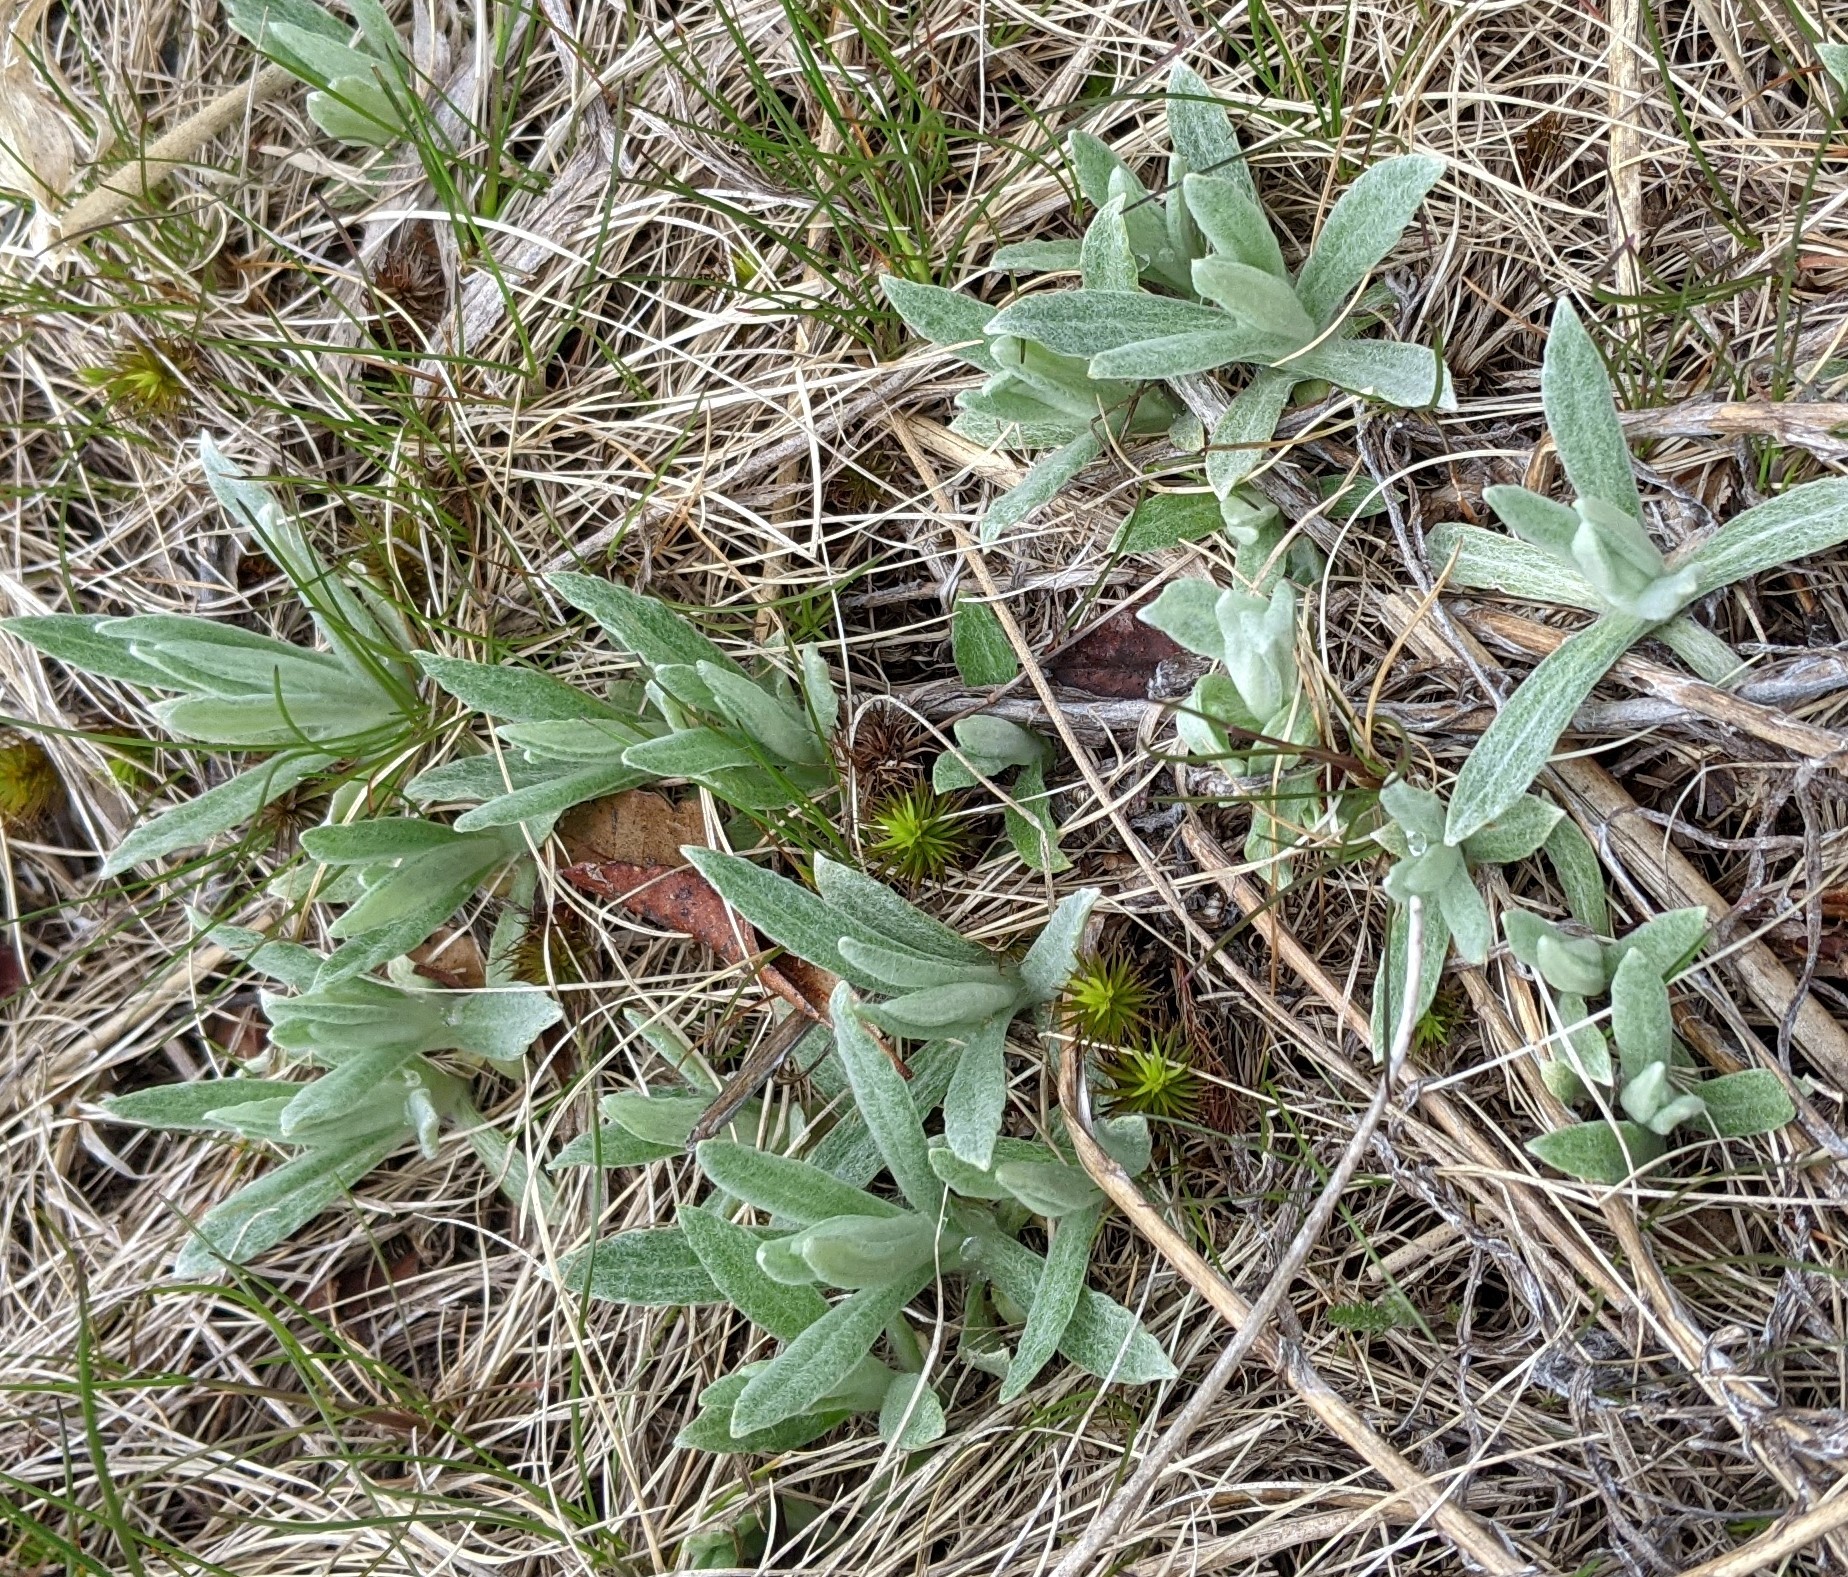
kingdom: Plantae
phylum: Tracheophyta
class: Magnoliopsida
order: Asterales
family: Asteraceae
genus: Anaphalis
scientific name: Anaphalis margaritacea
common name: Pearly everlasting
